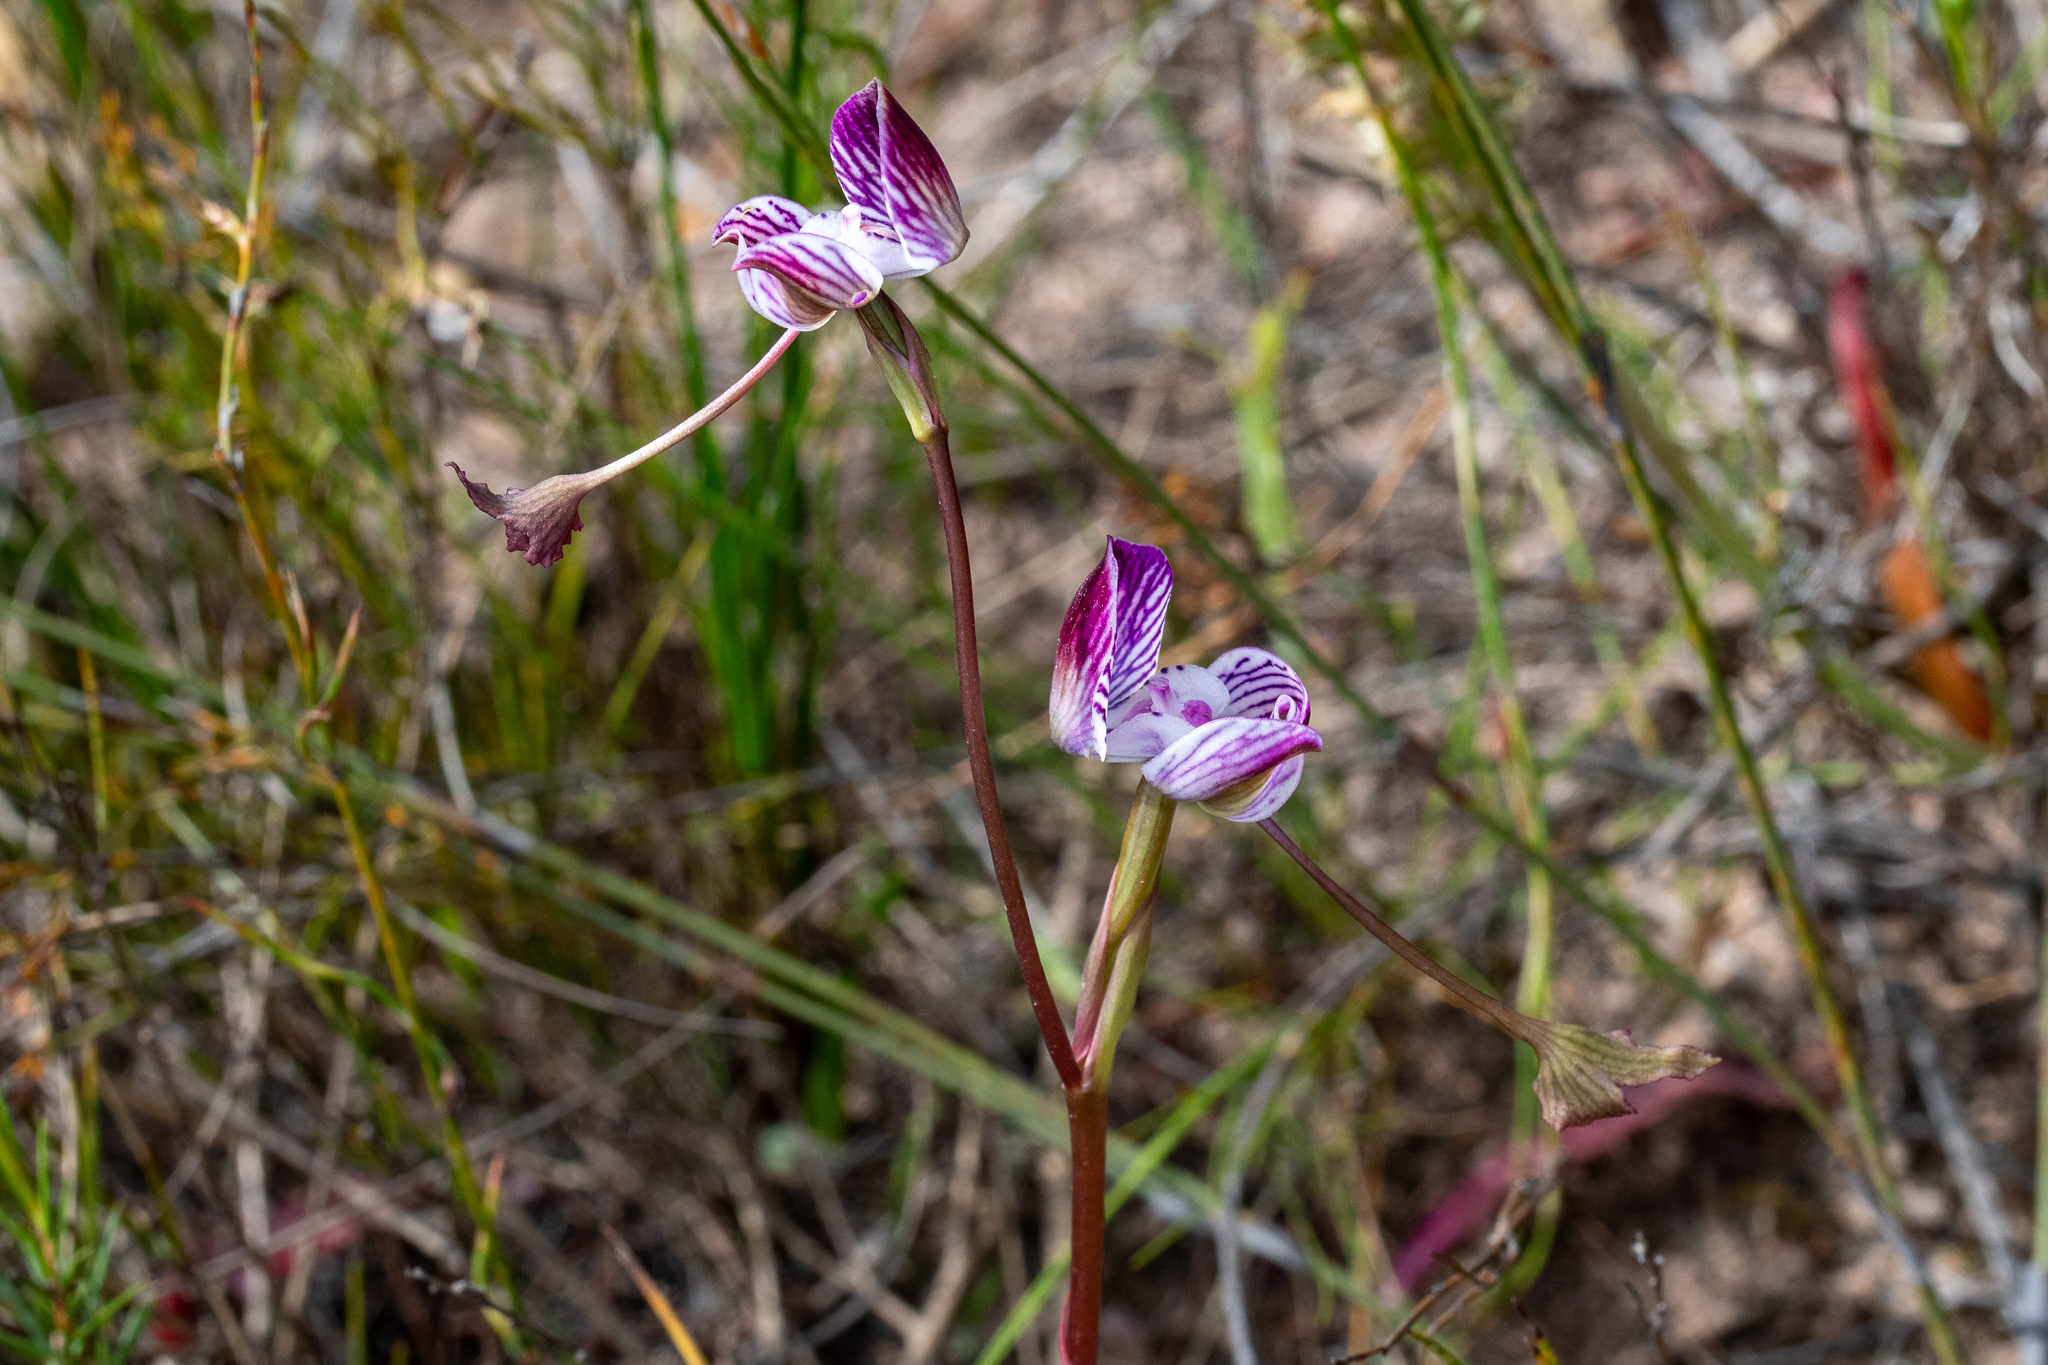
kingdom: Plantae
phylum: Tracheophyta
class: Liliopsida
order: Asparagales
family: Orchidaceae
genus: Disa
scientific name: Disa spathulata
